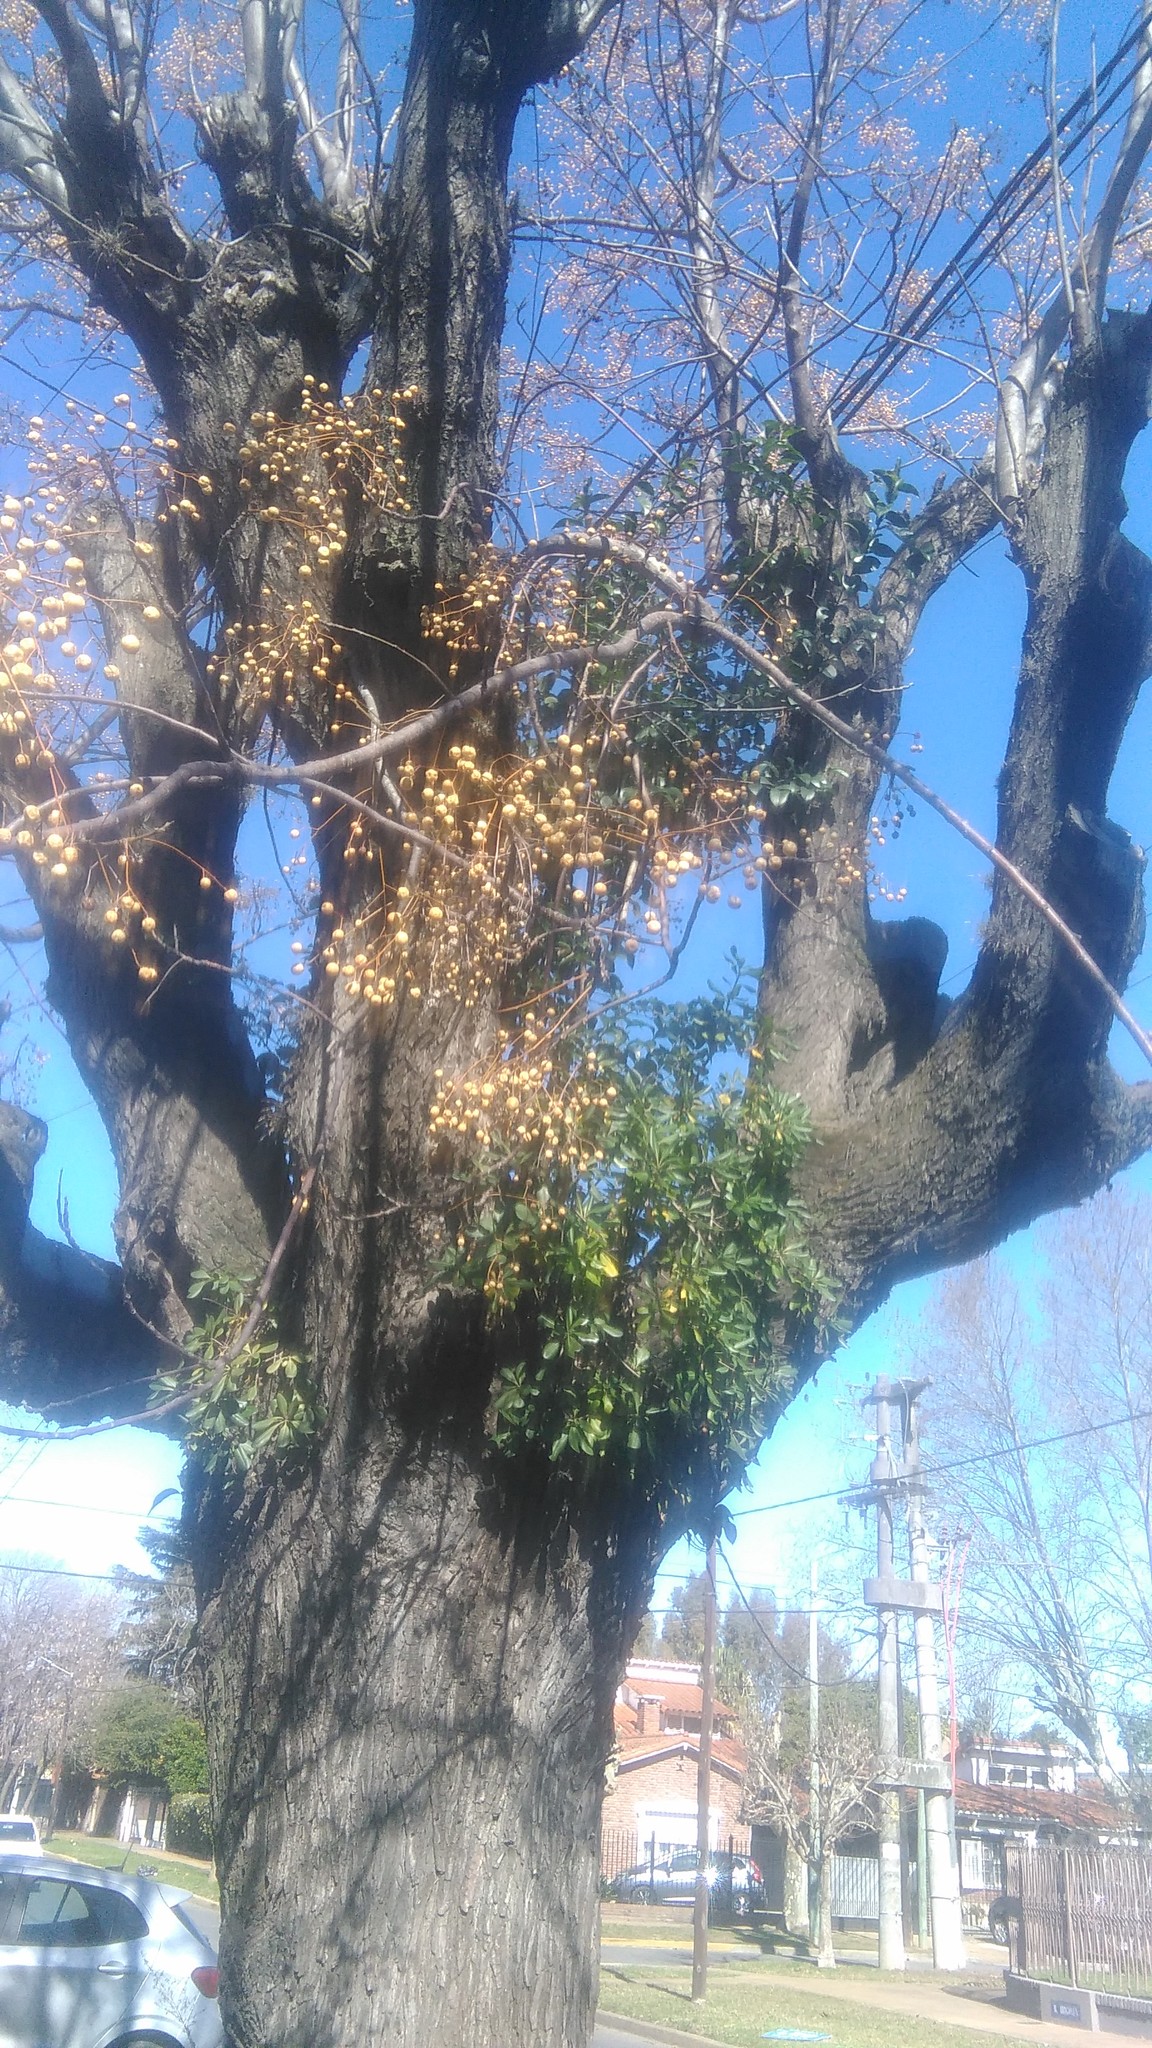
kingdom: Plantae
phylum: Tracheophyta
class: Magnoliopsida
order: Sapindales
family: Meliaceae
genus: Melia
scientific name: Melia azedarach
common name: Chinaberrytree
